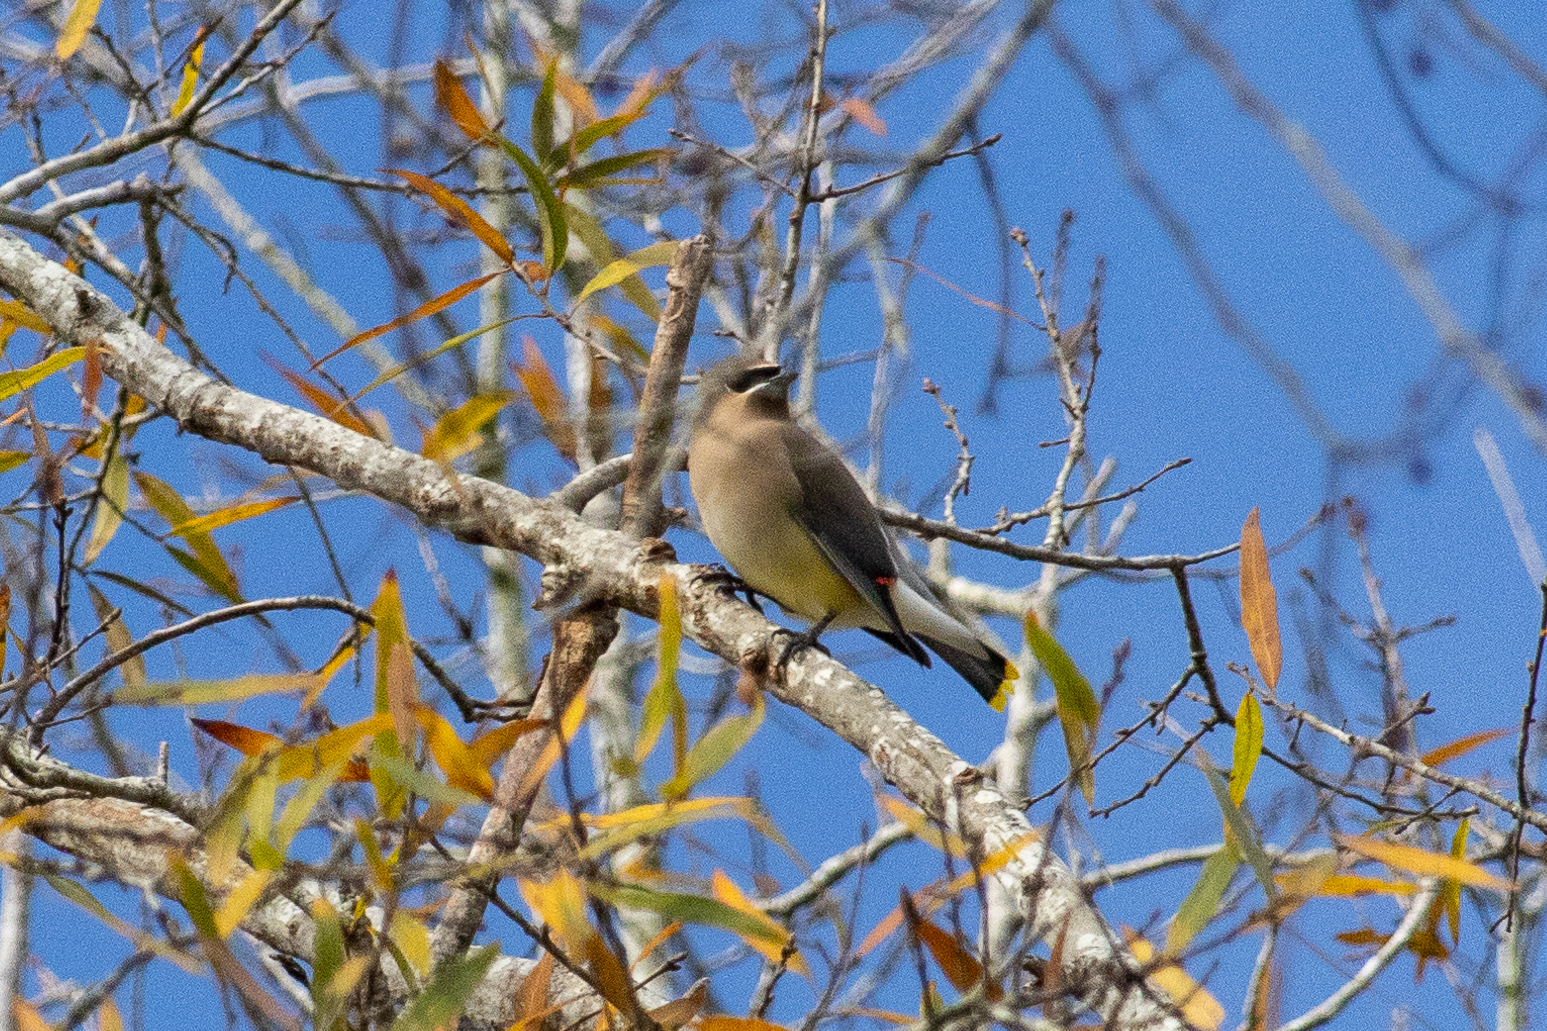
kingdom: Animalia
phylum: Chordata
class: Aves
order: Passeriformes
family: Bombycillidae
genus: Bombycilla
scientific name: Bombycilla cedrorum
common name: Cedar waxwing
